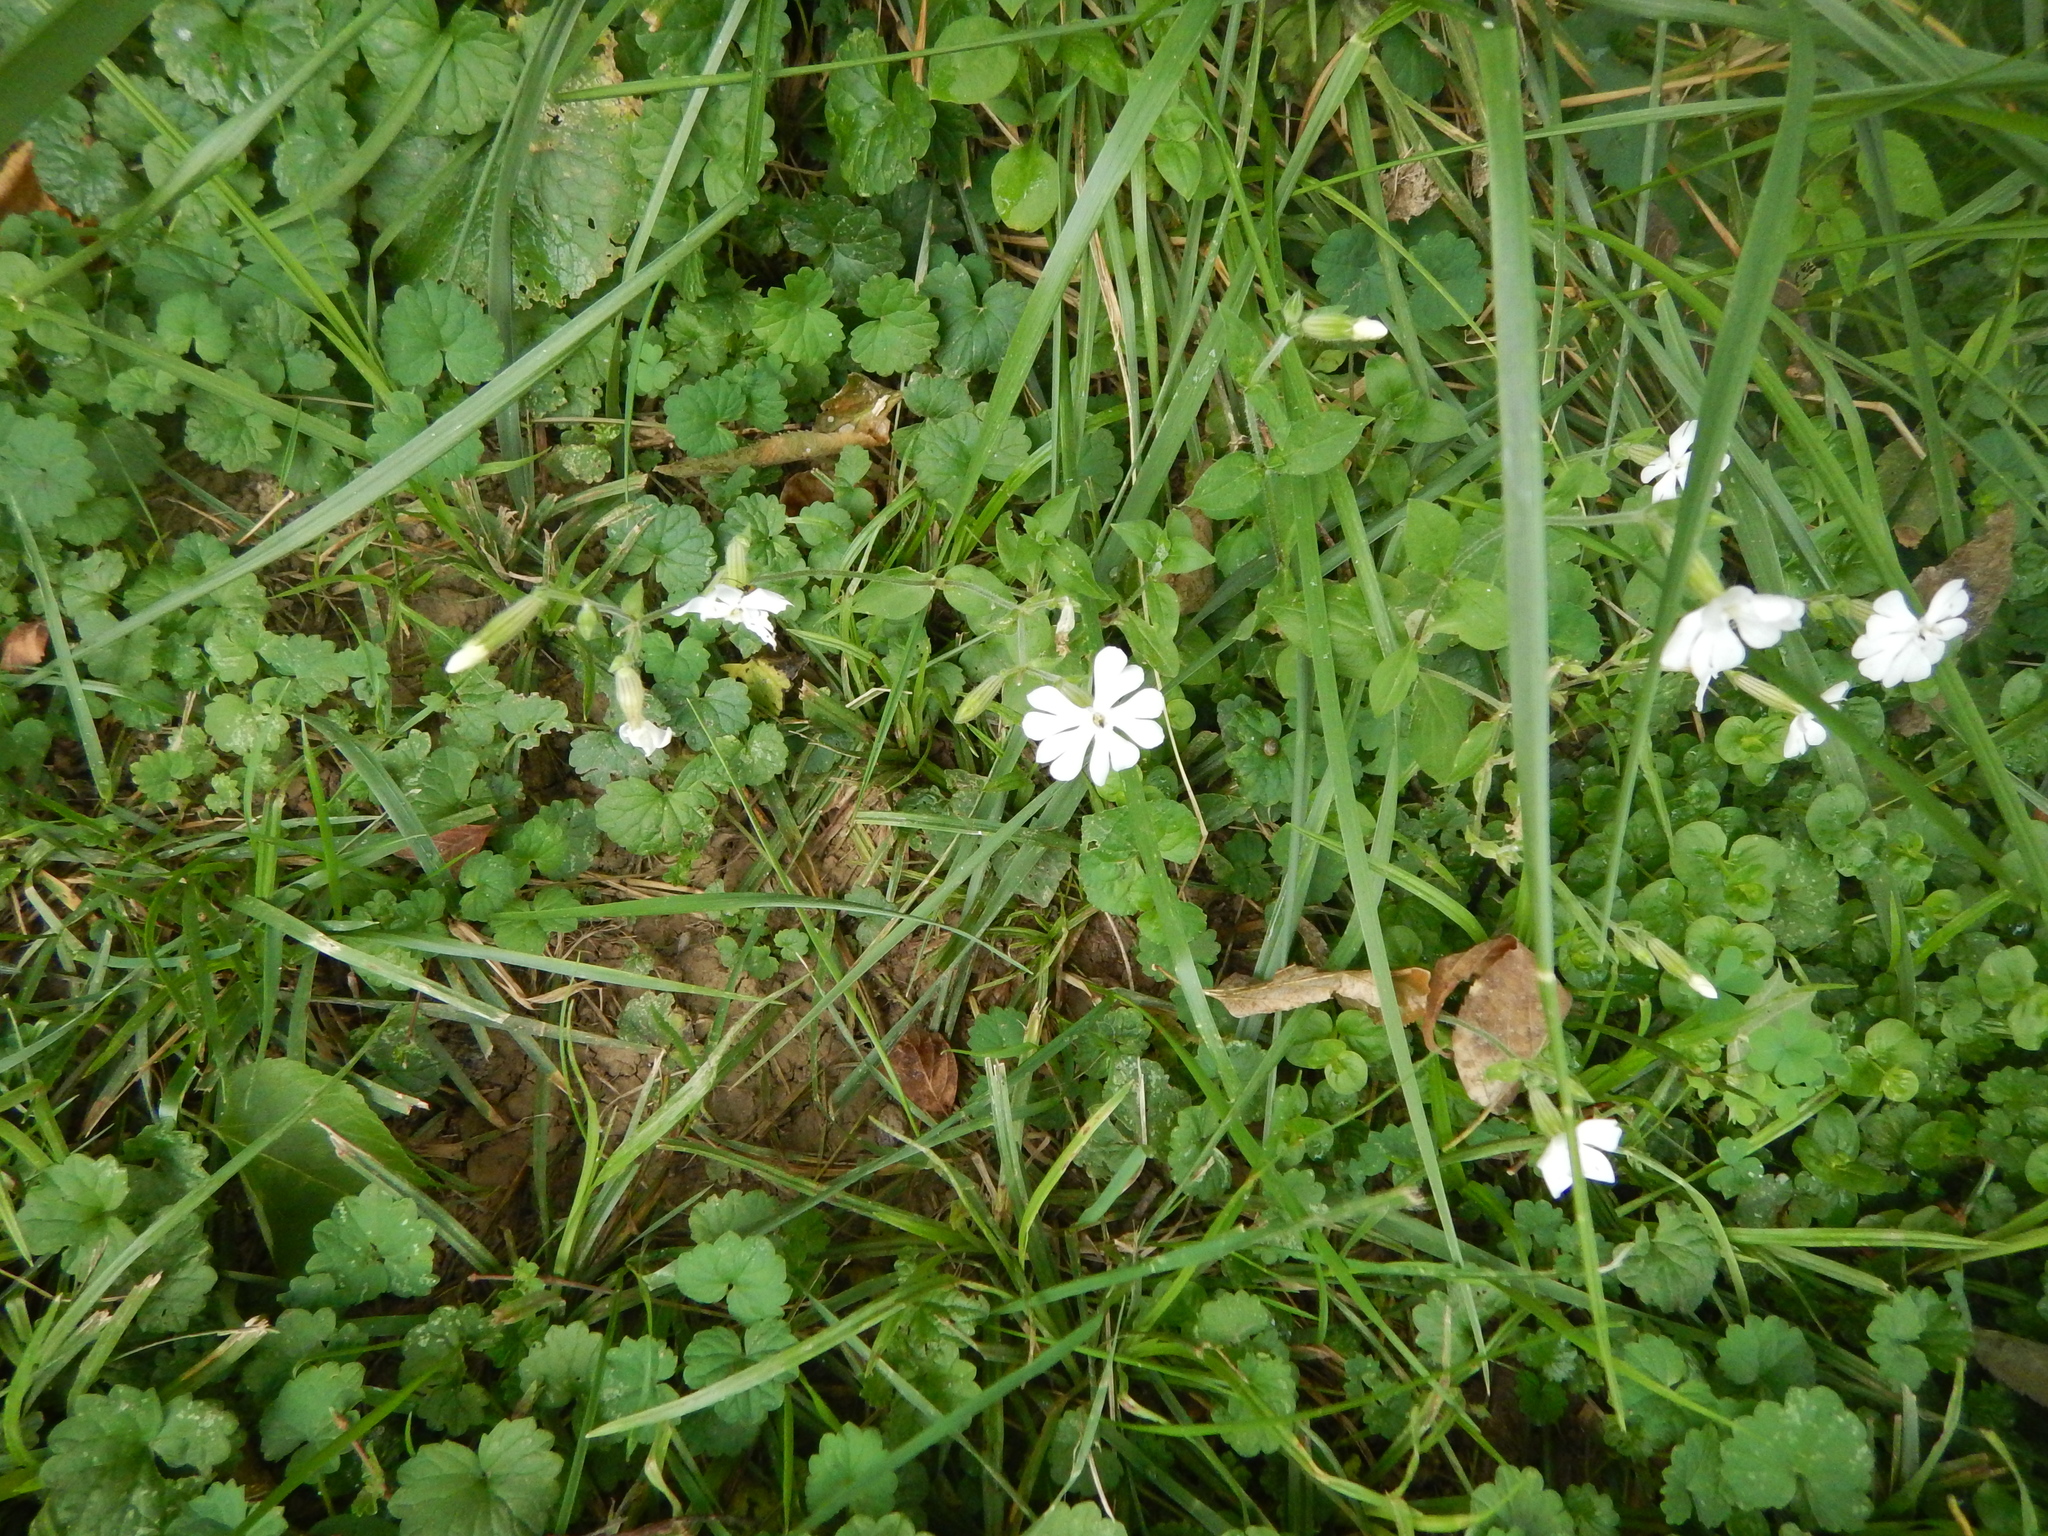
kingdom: Plantae
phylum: Tracheophyta
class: Magnoliopsida
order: Caryophyllales
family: Caryophyllaceae
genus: Silene
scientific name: Silene latifolia
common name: White campion
